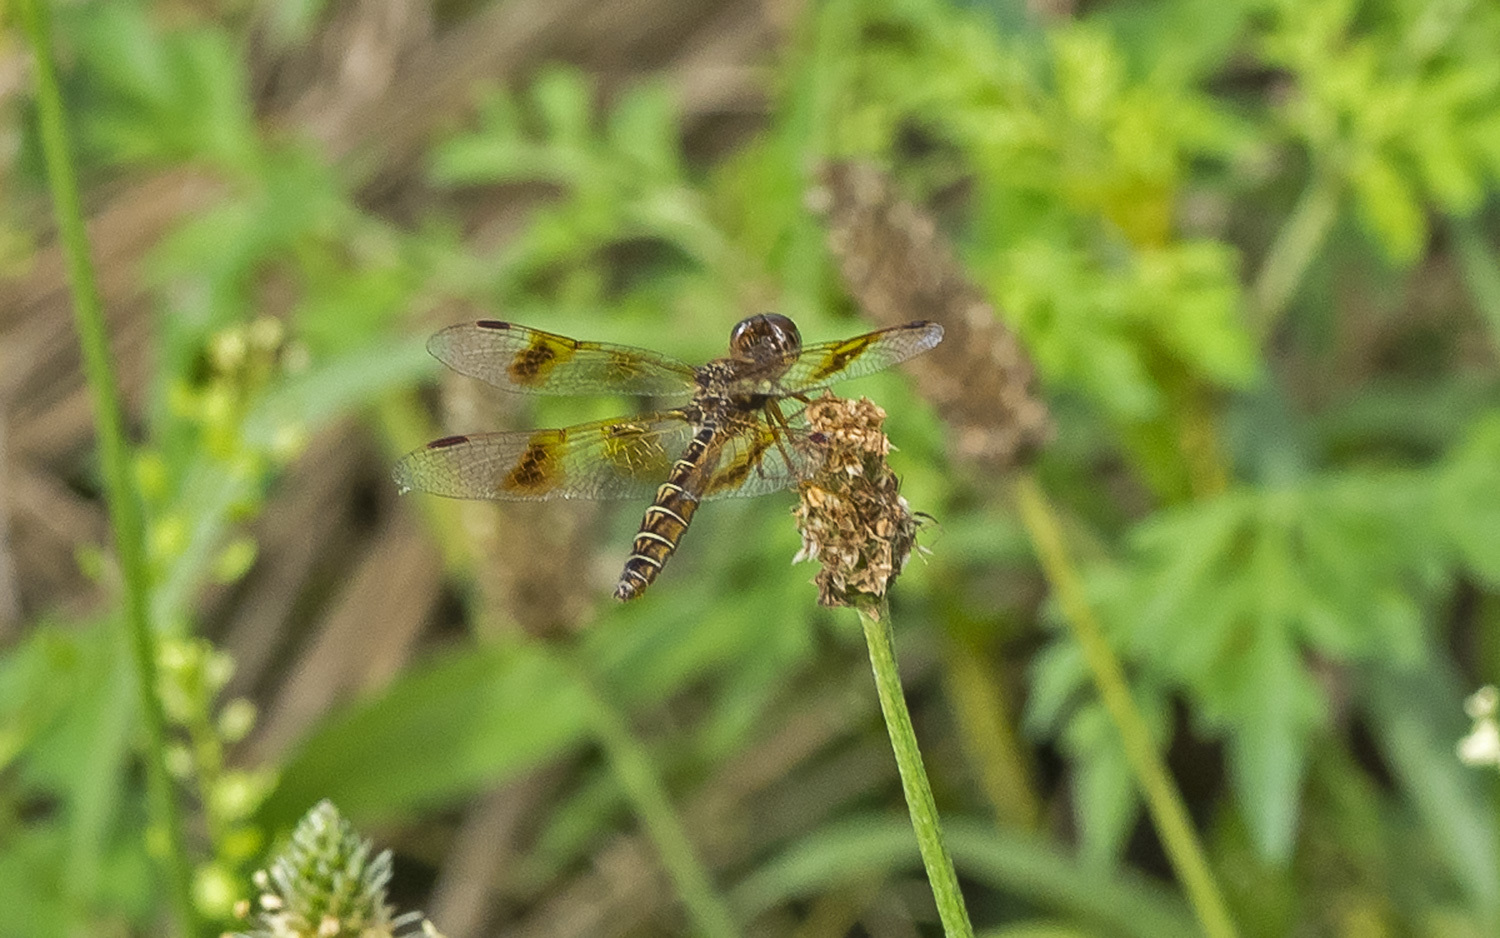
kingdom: Animalia
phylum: Arthropoda
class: Insecta
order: Odonata
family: Libellulidae
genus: Perithemis
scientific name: Perithemis tenera
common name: Eastern amberwing
